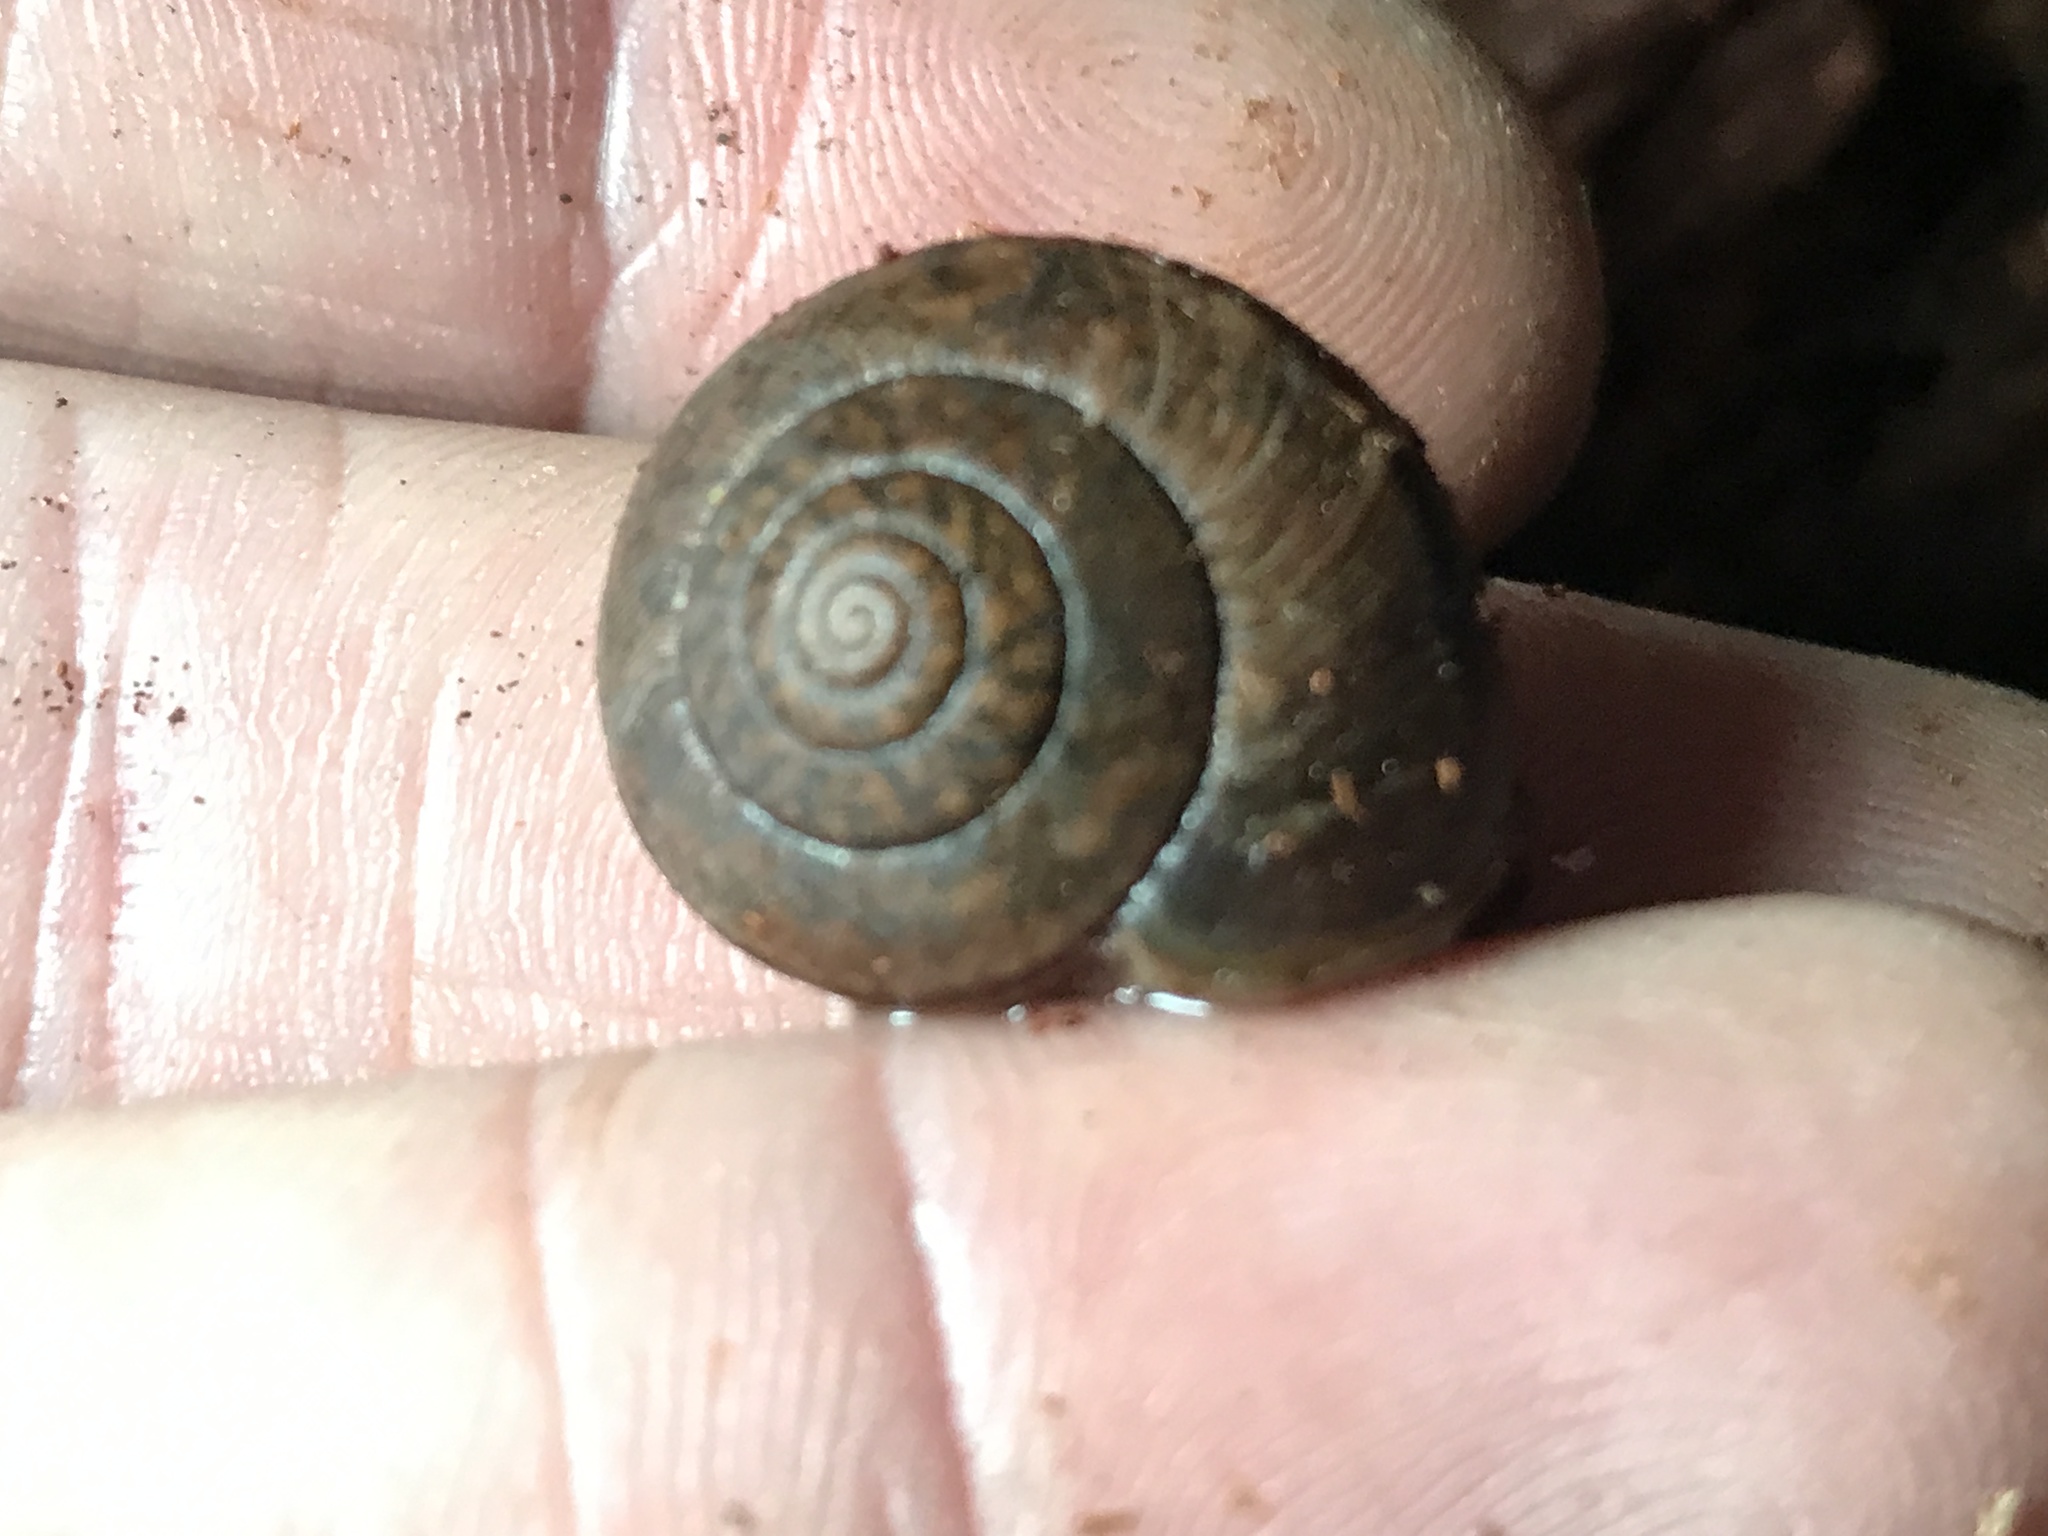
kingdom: Animalia
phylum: Mollusca
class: Gastropoda
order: Stylommatophora
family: Xanthonychidae
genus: Helminthoglypta
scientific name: Helminthoglypta nickliniana
